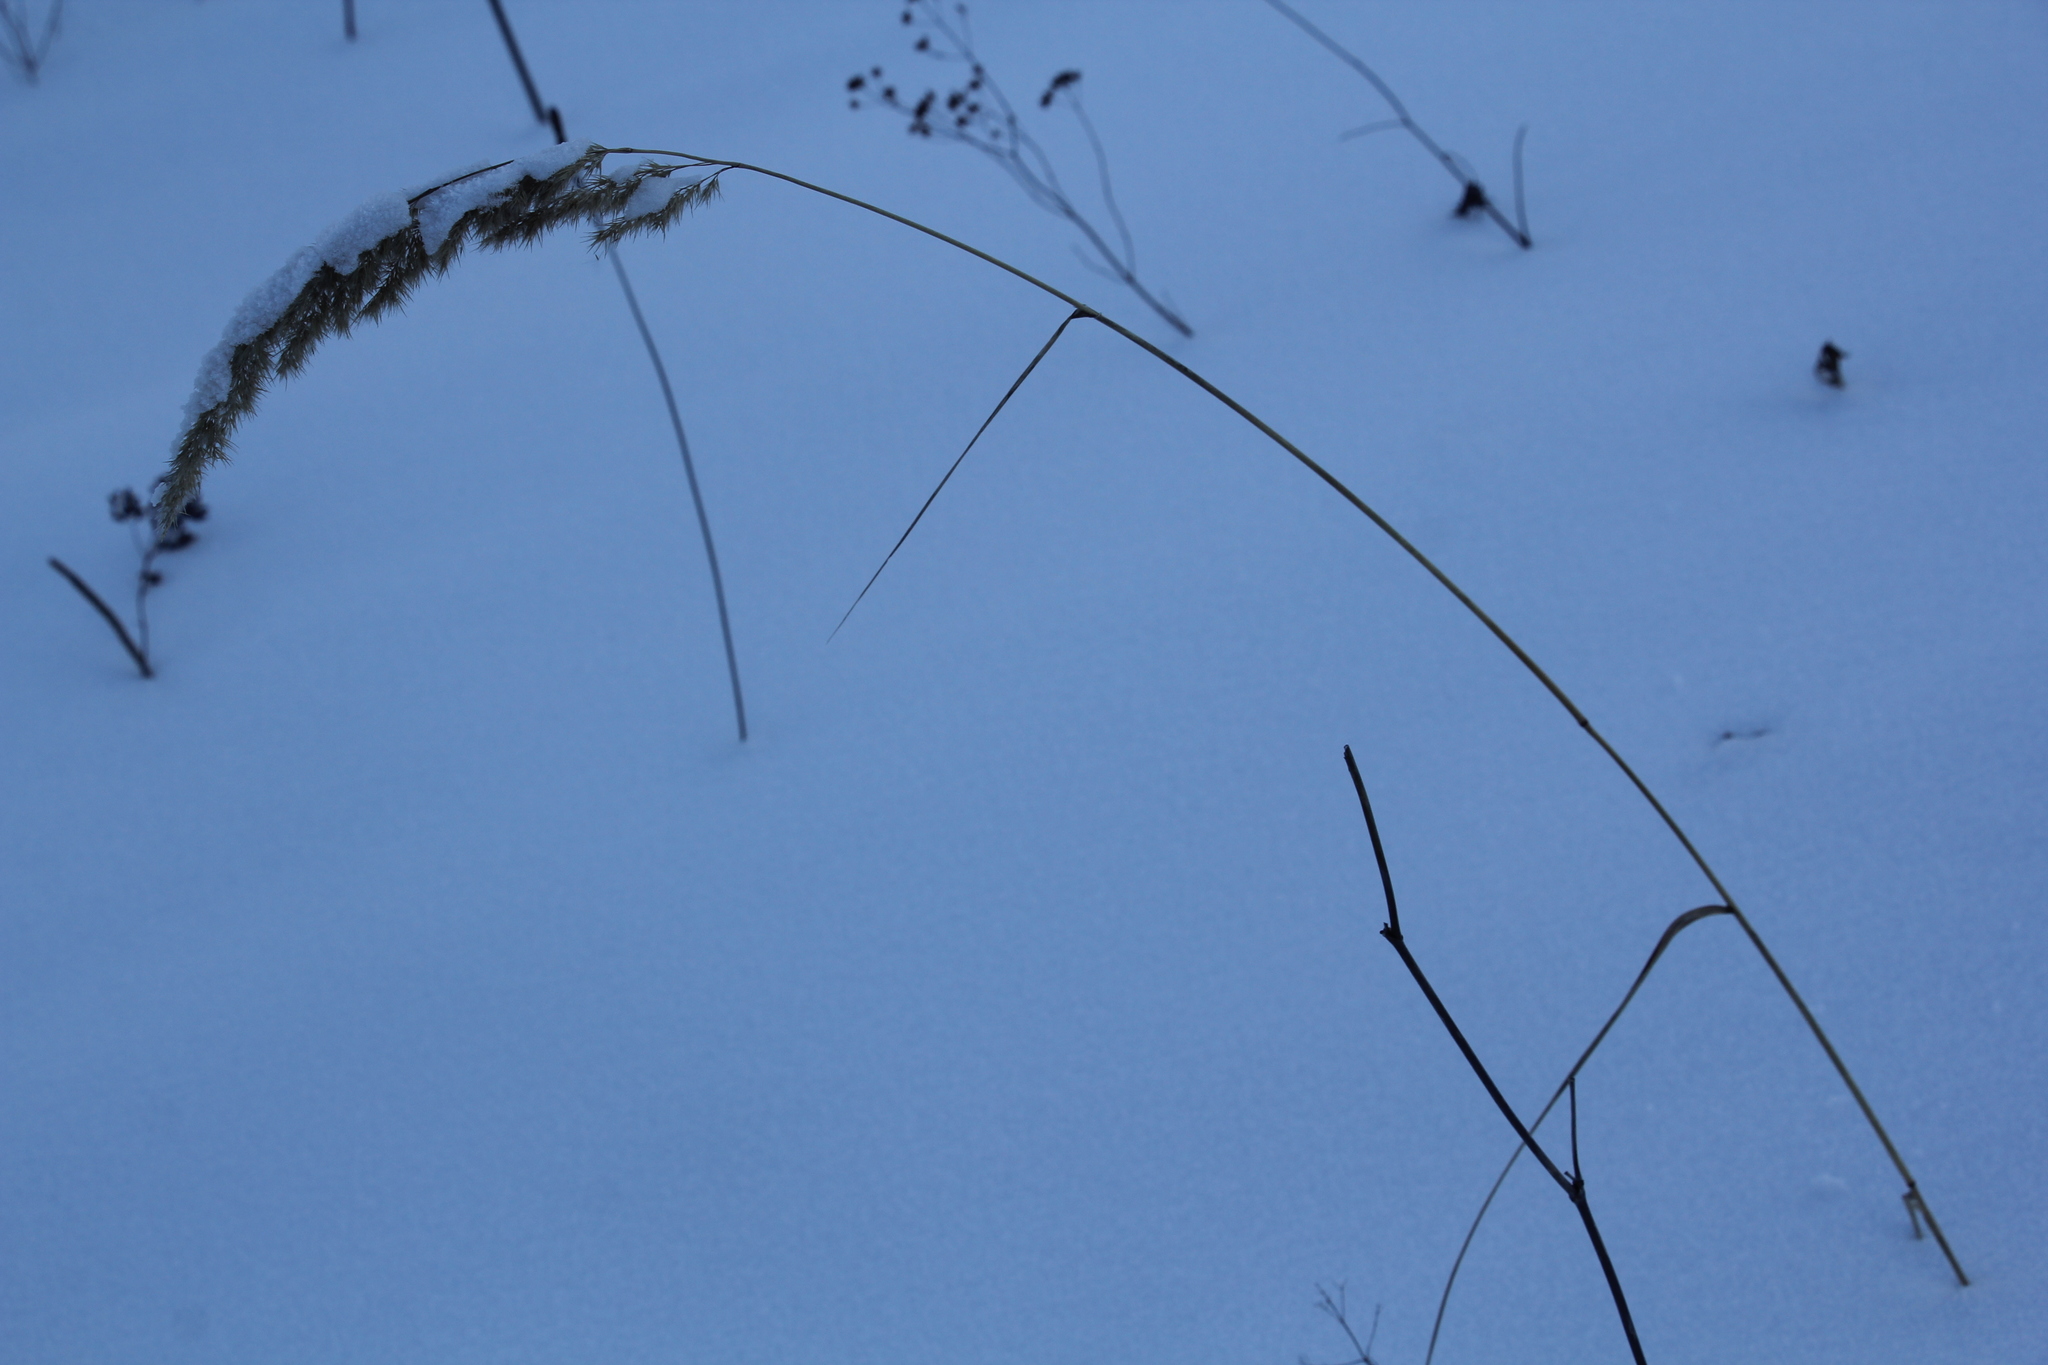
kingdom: Plantae
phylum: Tracheophyta
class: Liliopsida
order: Poales
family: Poaceae
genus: Calamagrostis
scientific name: Calamagrostis epigejos
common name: Wood small-reed
